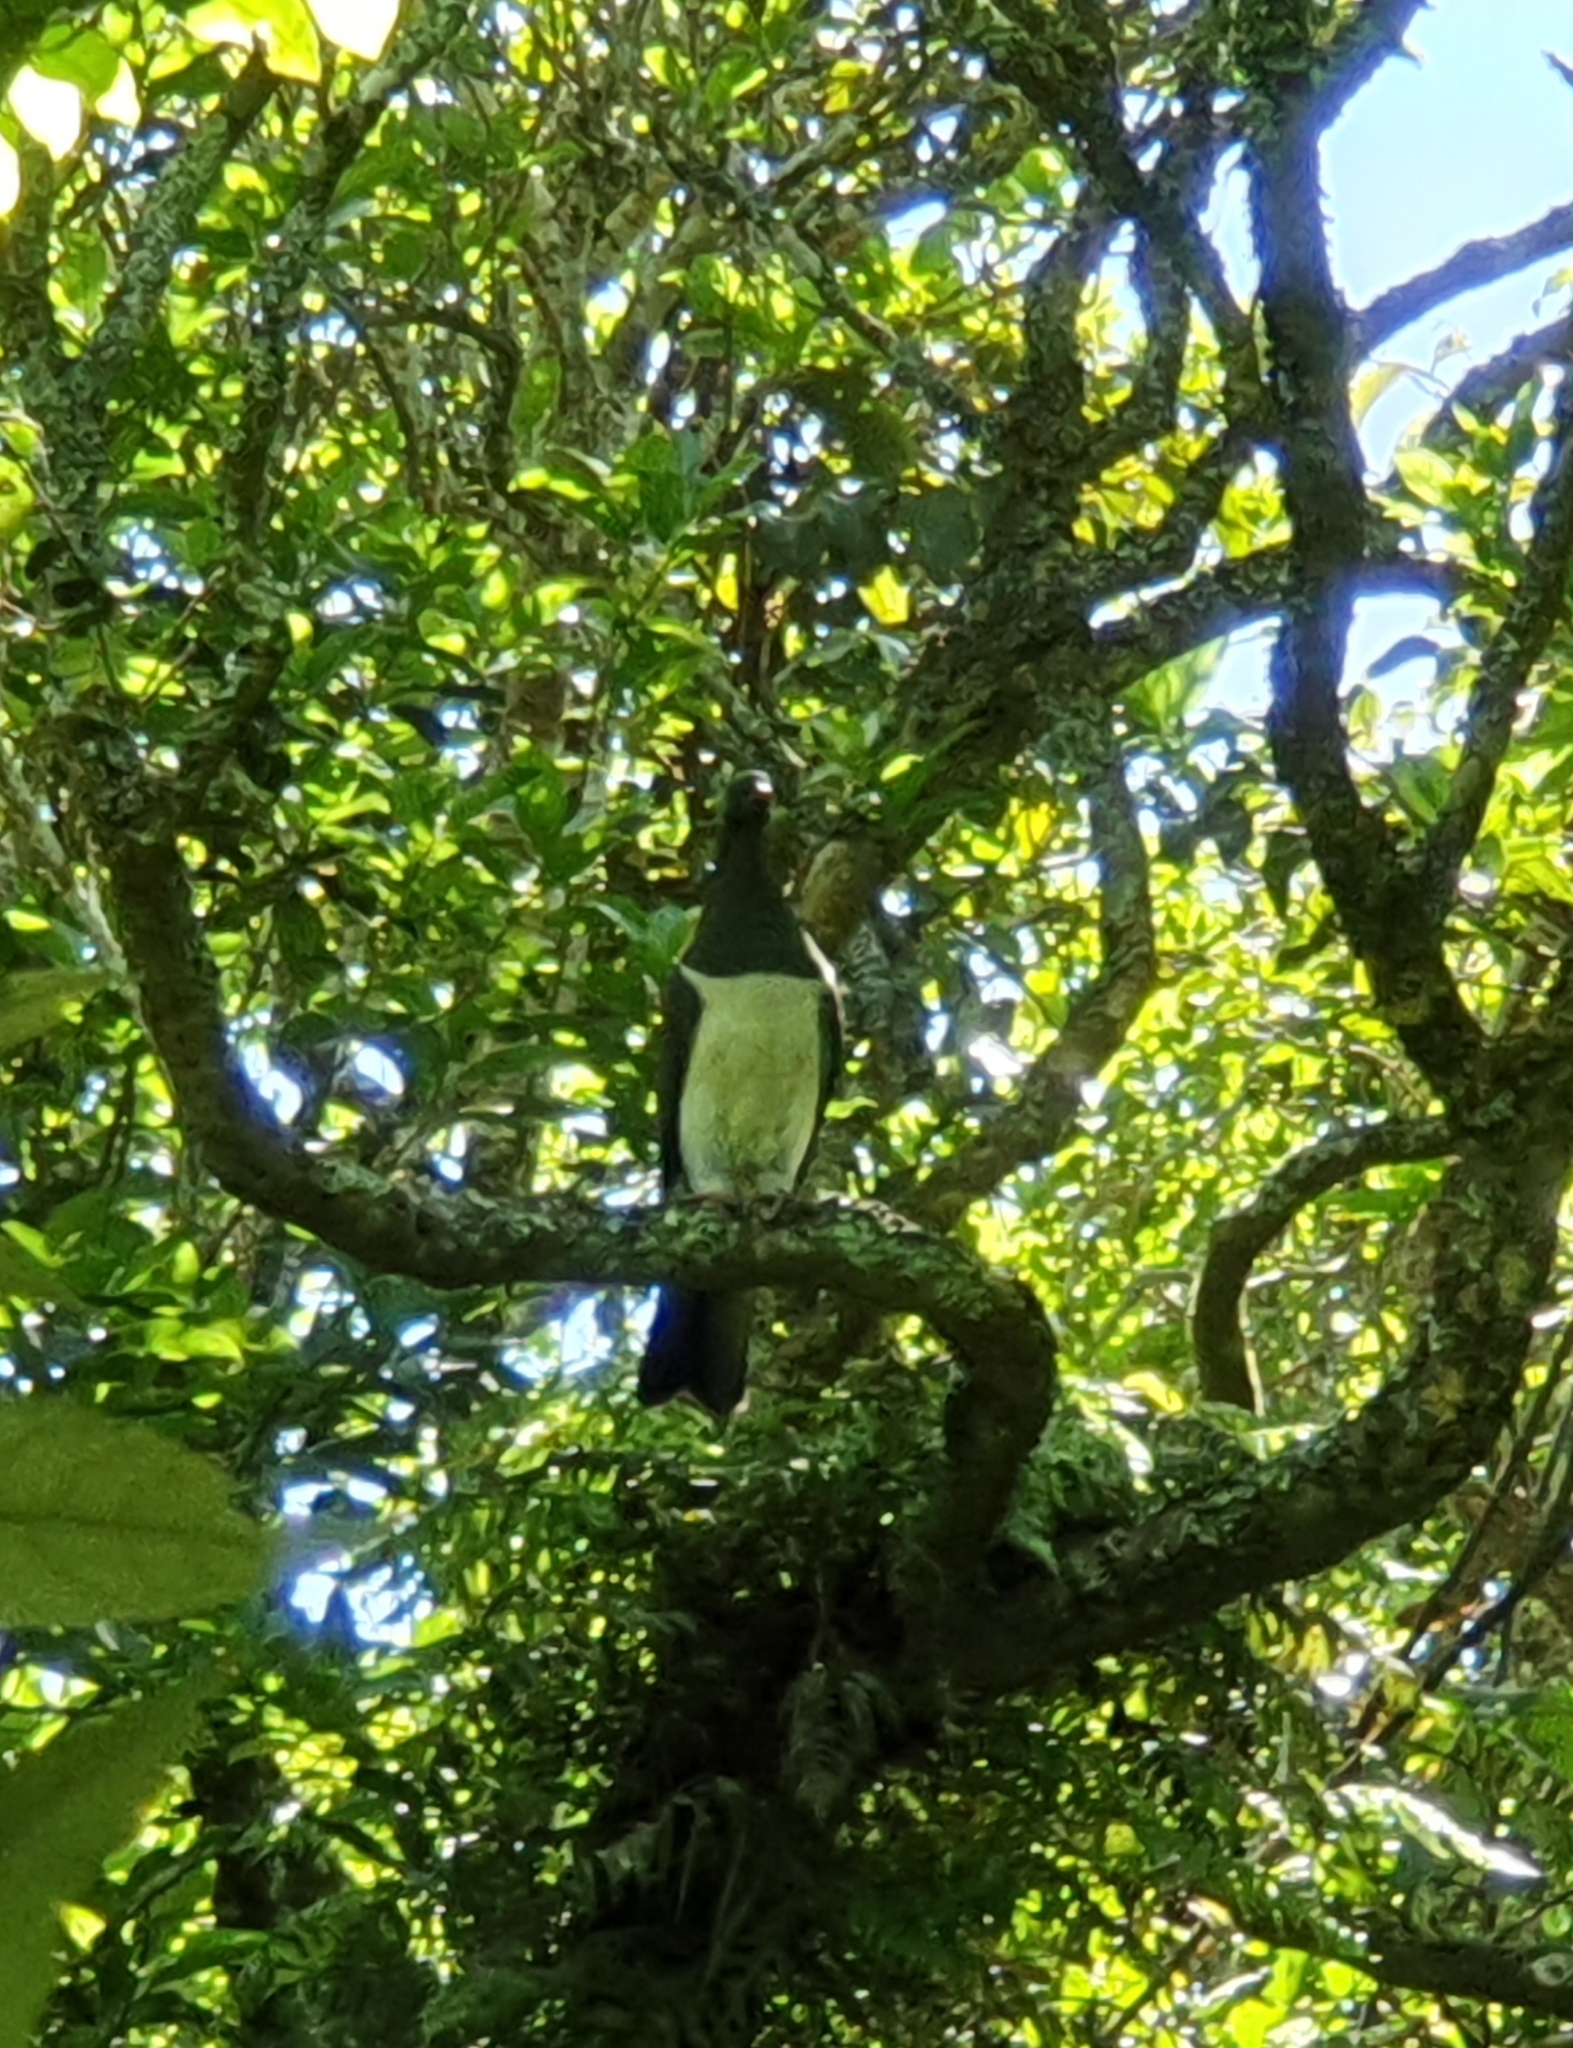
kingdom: Animalia
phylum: Chordata
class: Aves
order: Columbiformes
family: Columbidae
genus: Hemiphaga
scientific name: Hemiphaga novaeseelandiae
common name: New zealand pigeon
